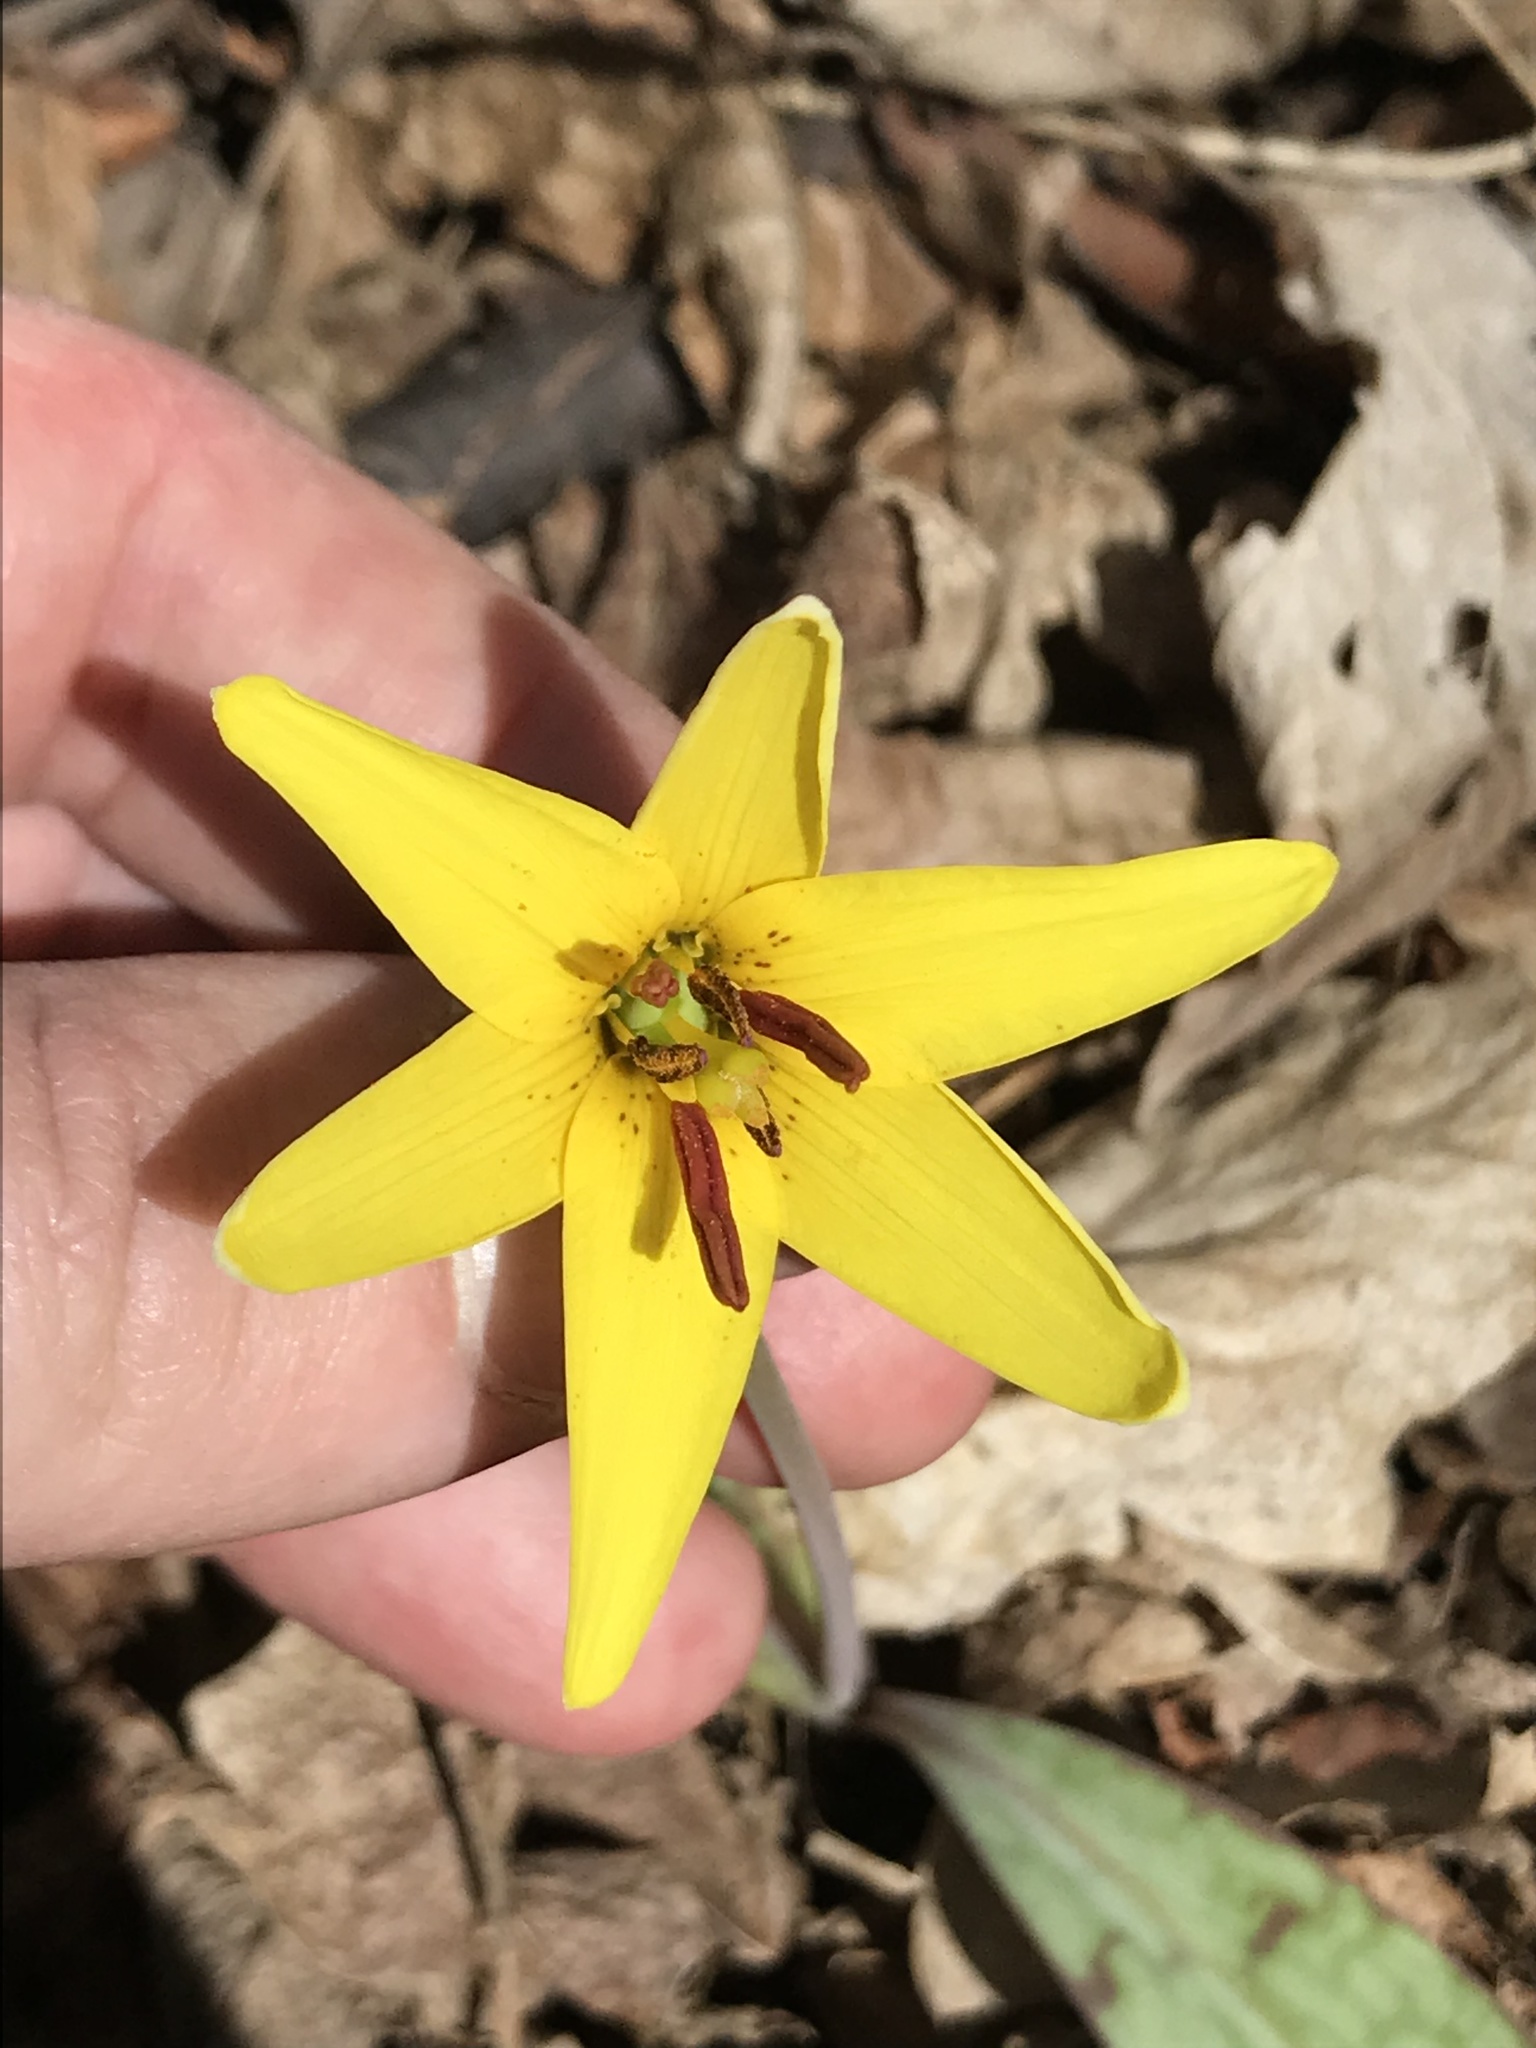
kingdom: Plantae
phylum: Tracheophyta
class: Liliopsida
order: Liliales
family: Liliaceae
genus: Erythronium
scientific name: Erythronium americanum
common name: Yellow adder's-tongue
